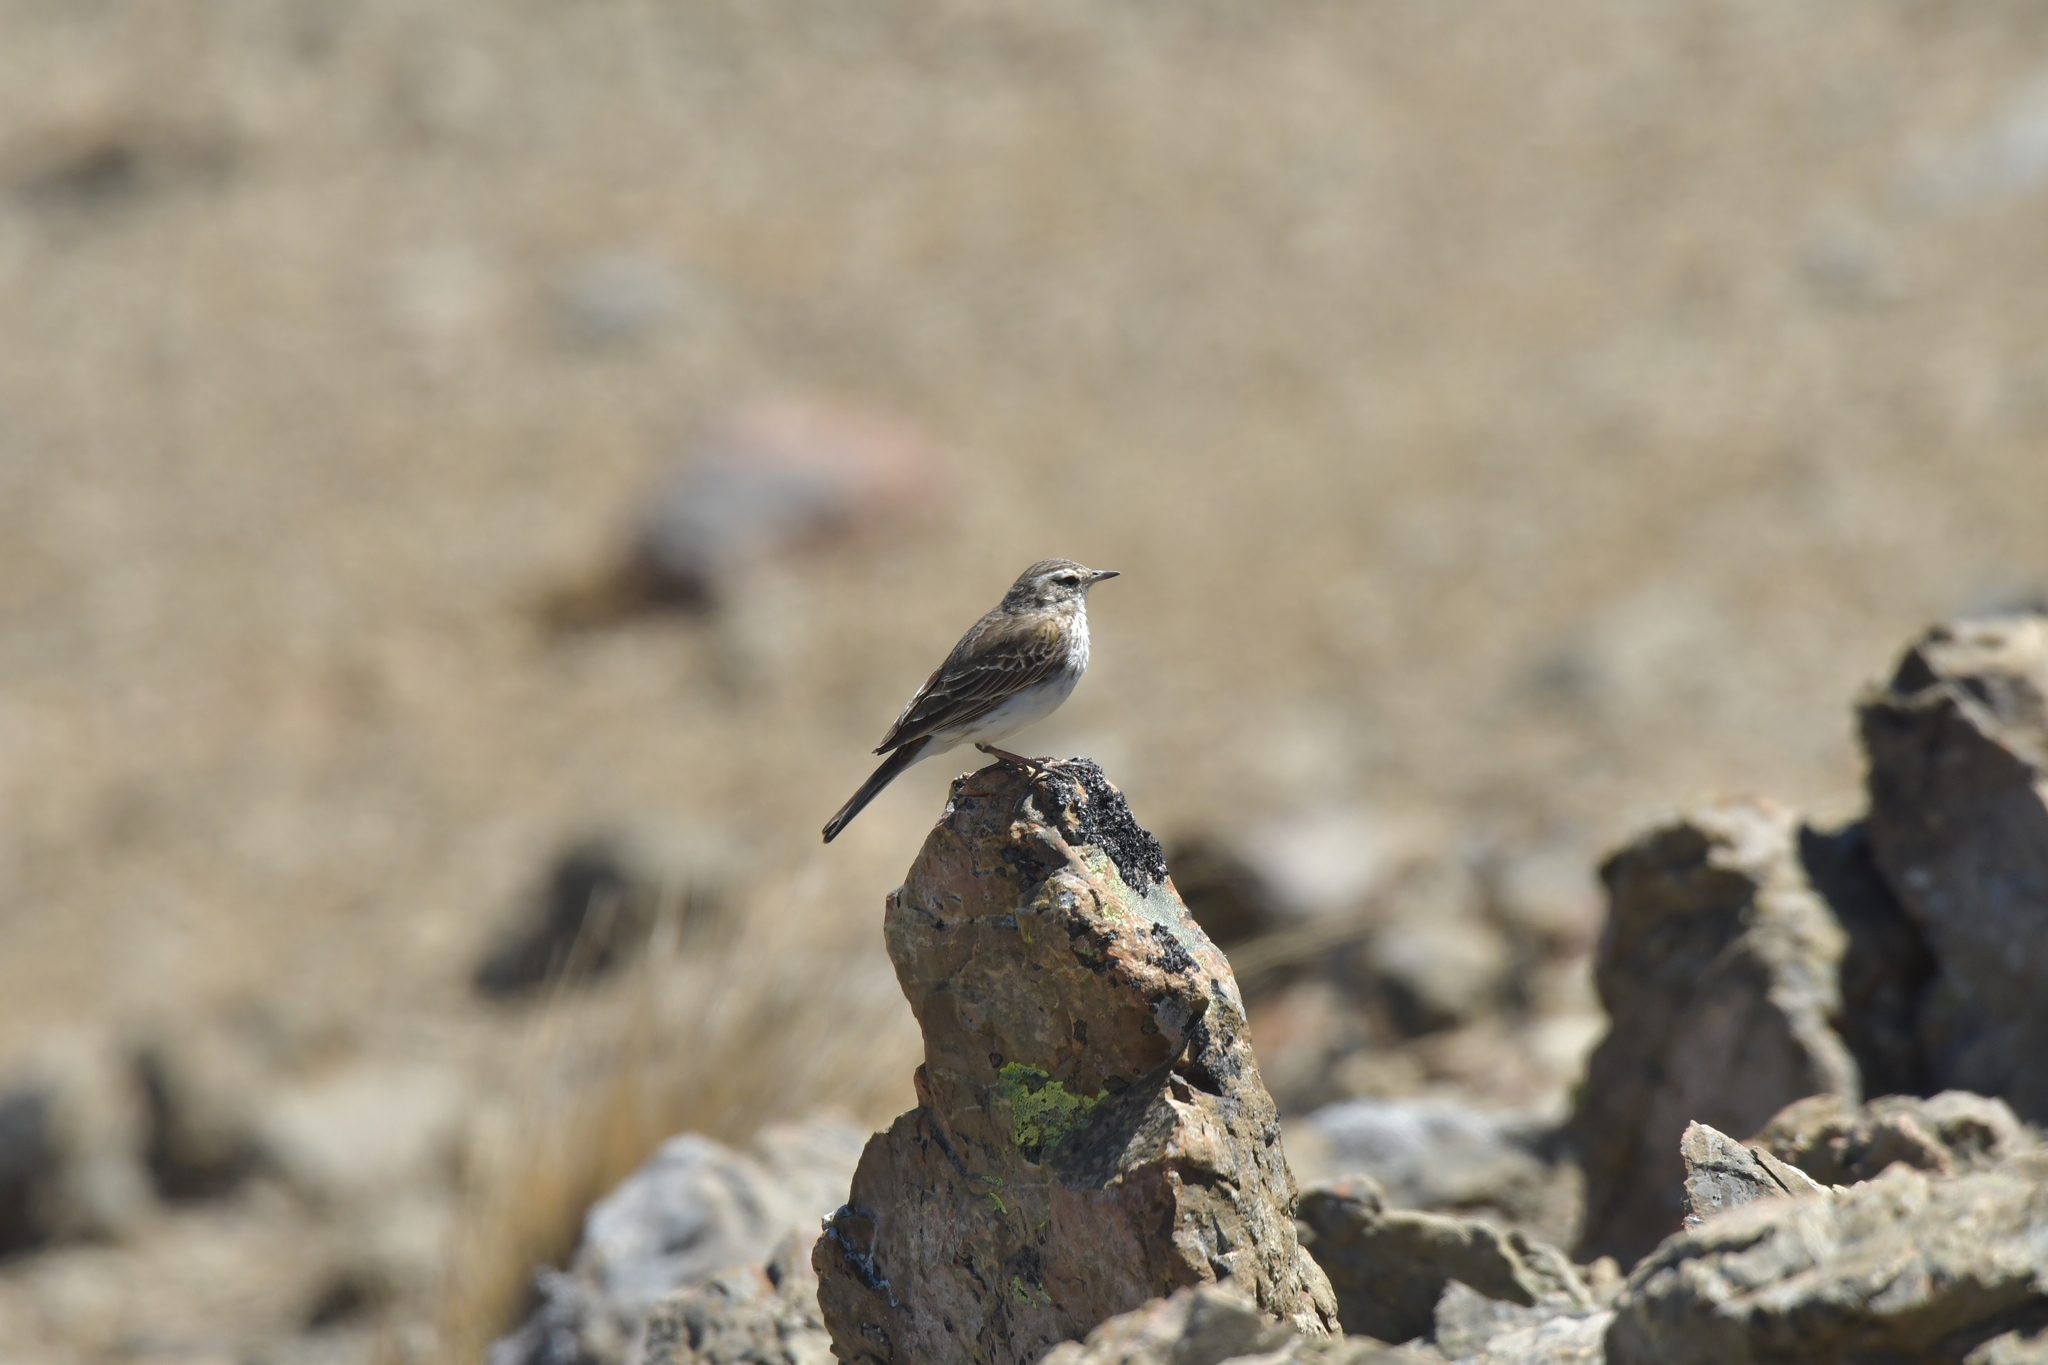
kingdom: Animalia
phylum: Chordata
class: Aves
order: Passeriformes
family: Motacillidae
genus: Anthus
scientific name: Anthus novaeseelandiae
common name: New zealand pipit
